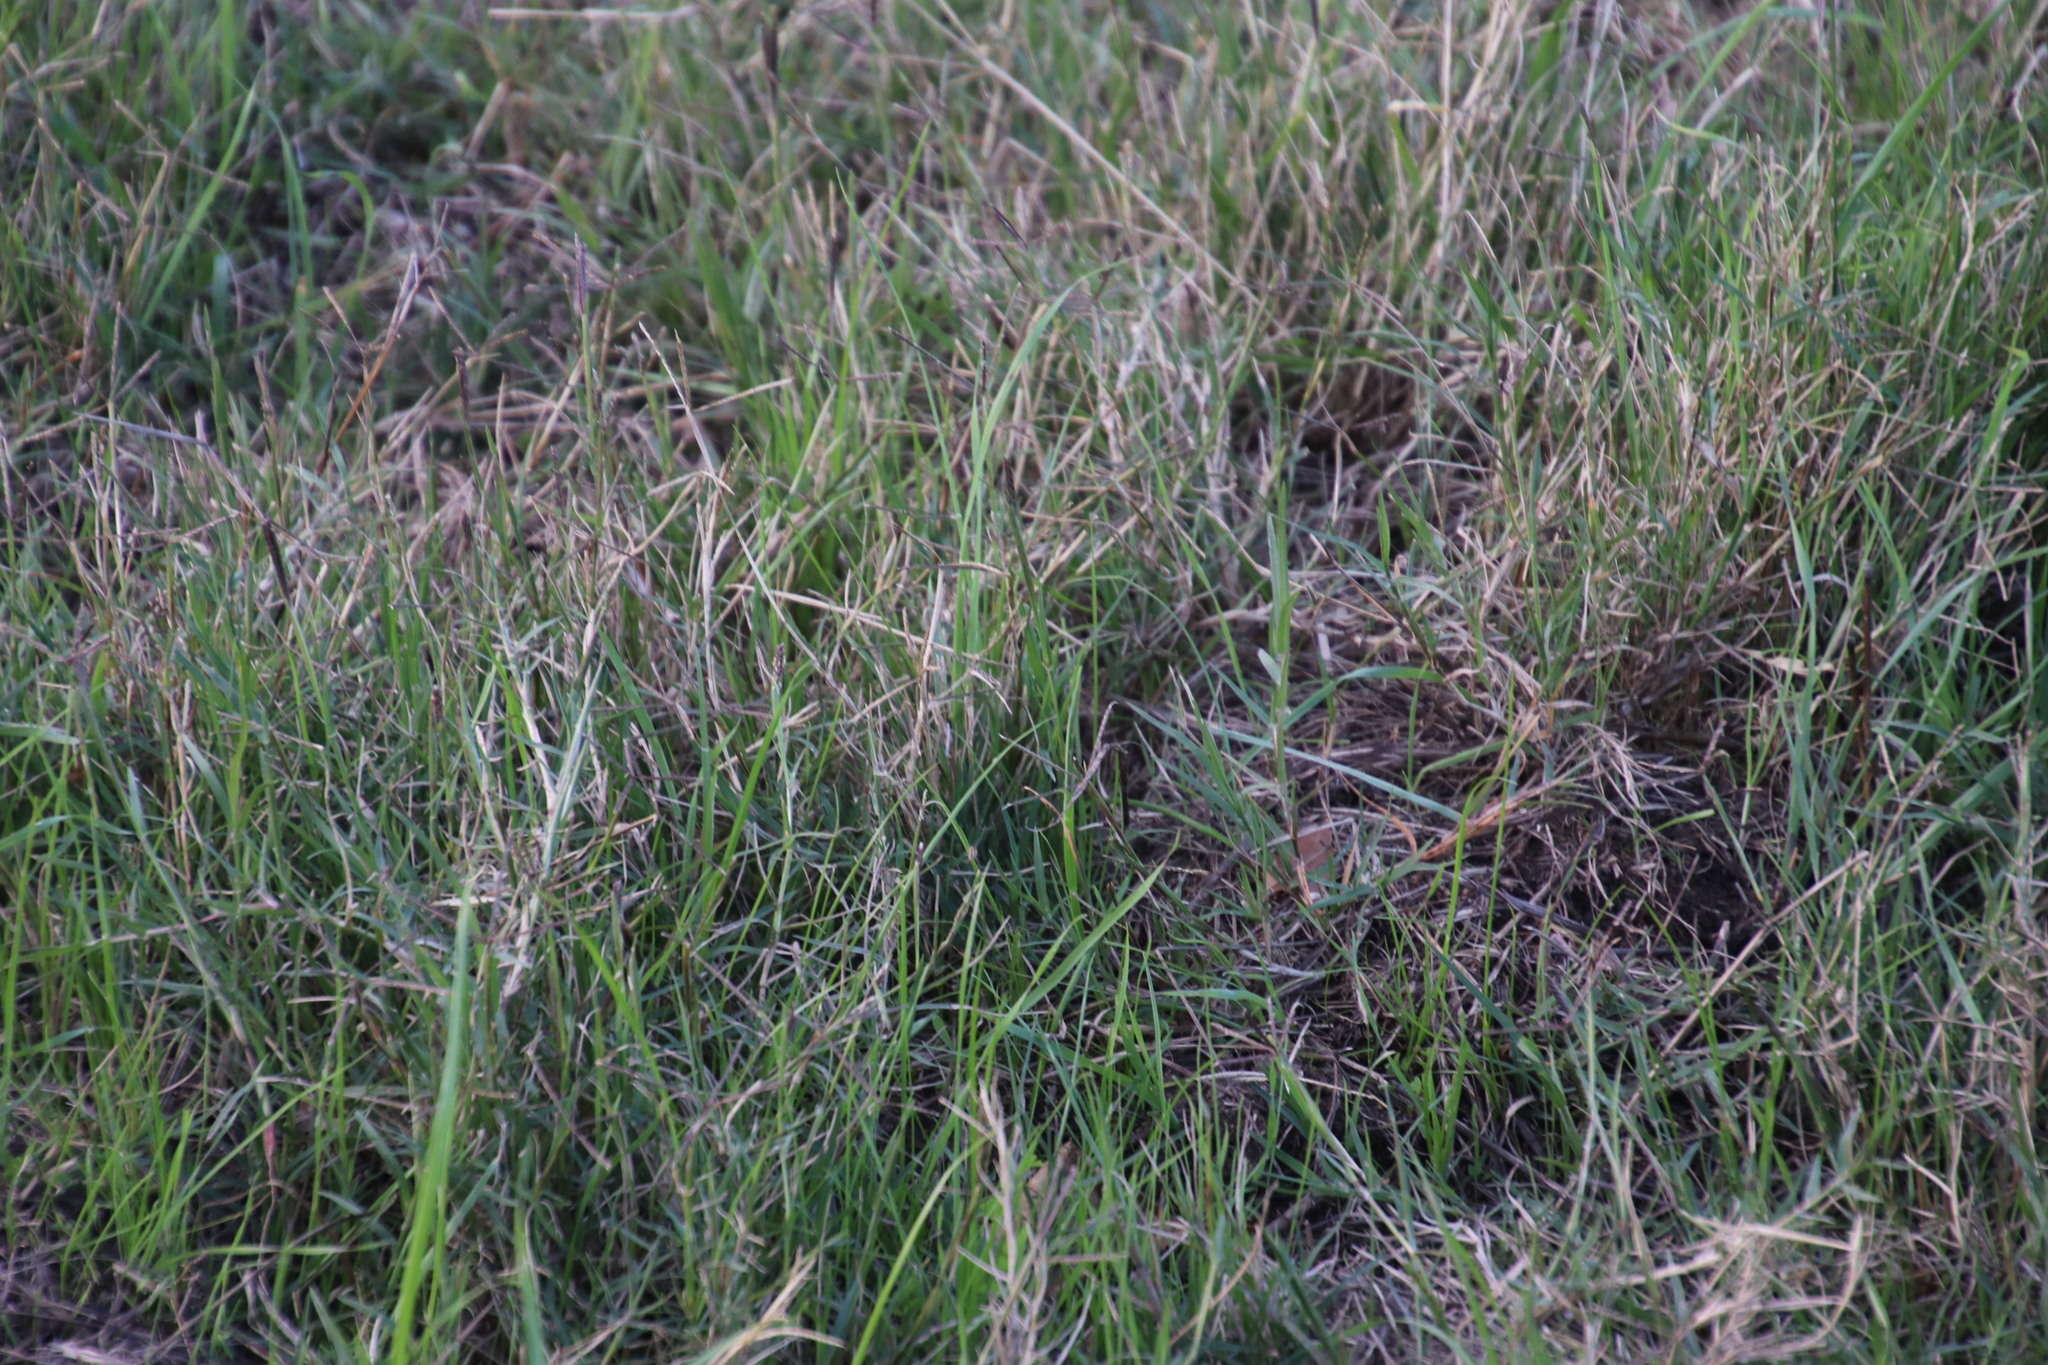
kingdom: Plantae
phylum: Tracheophyta
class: Liliopsida
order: Poales
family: Poaceae
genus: Cynodon
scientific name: Cynodon dactylon
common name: Bermuda grass
